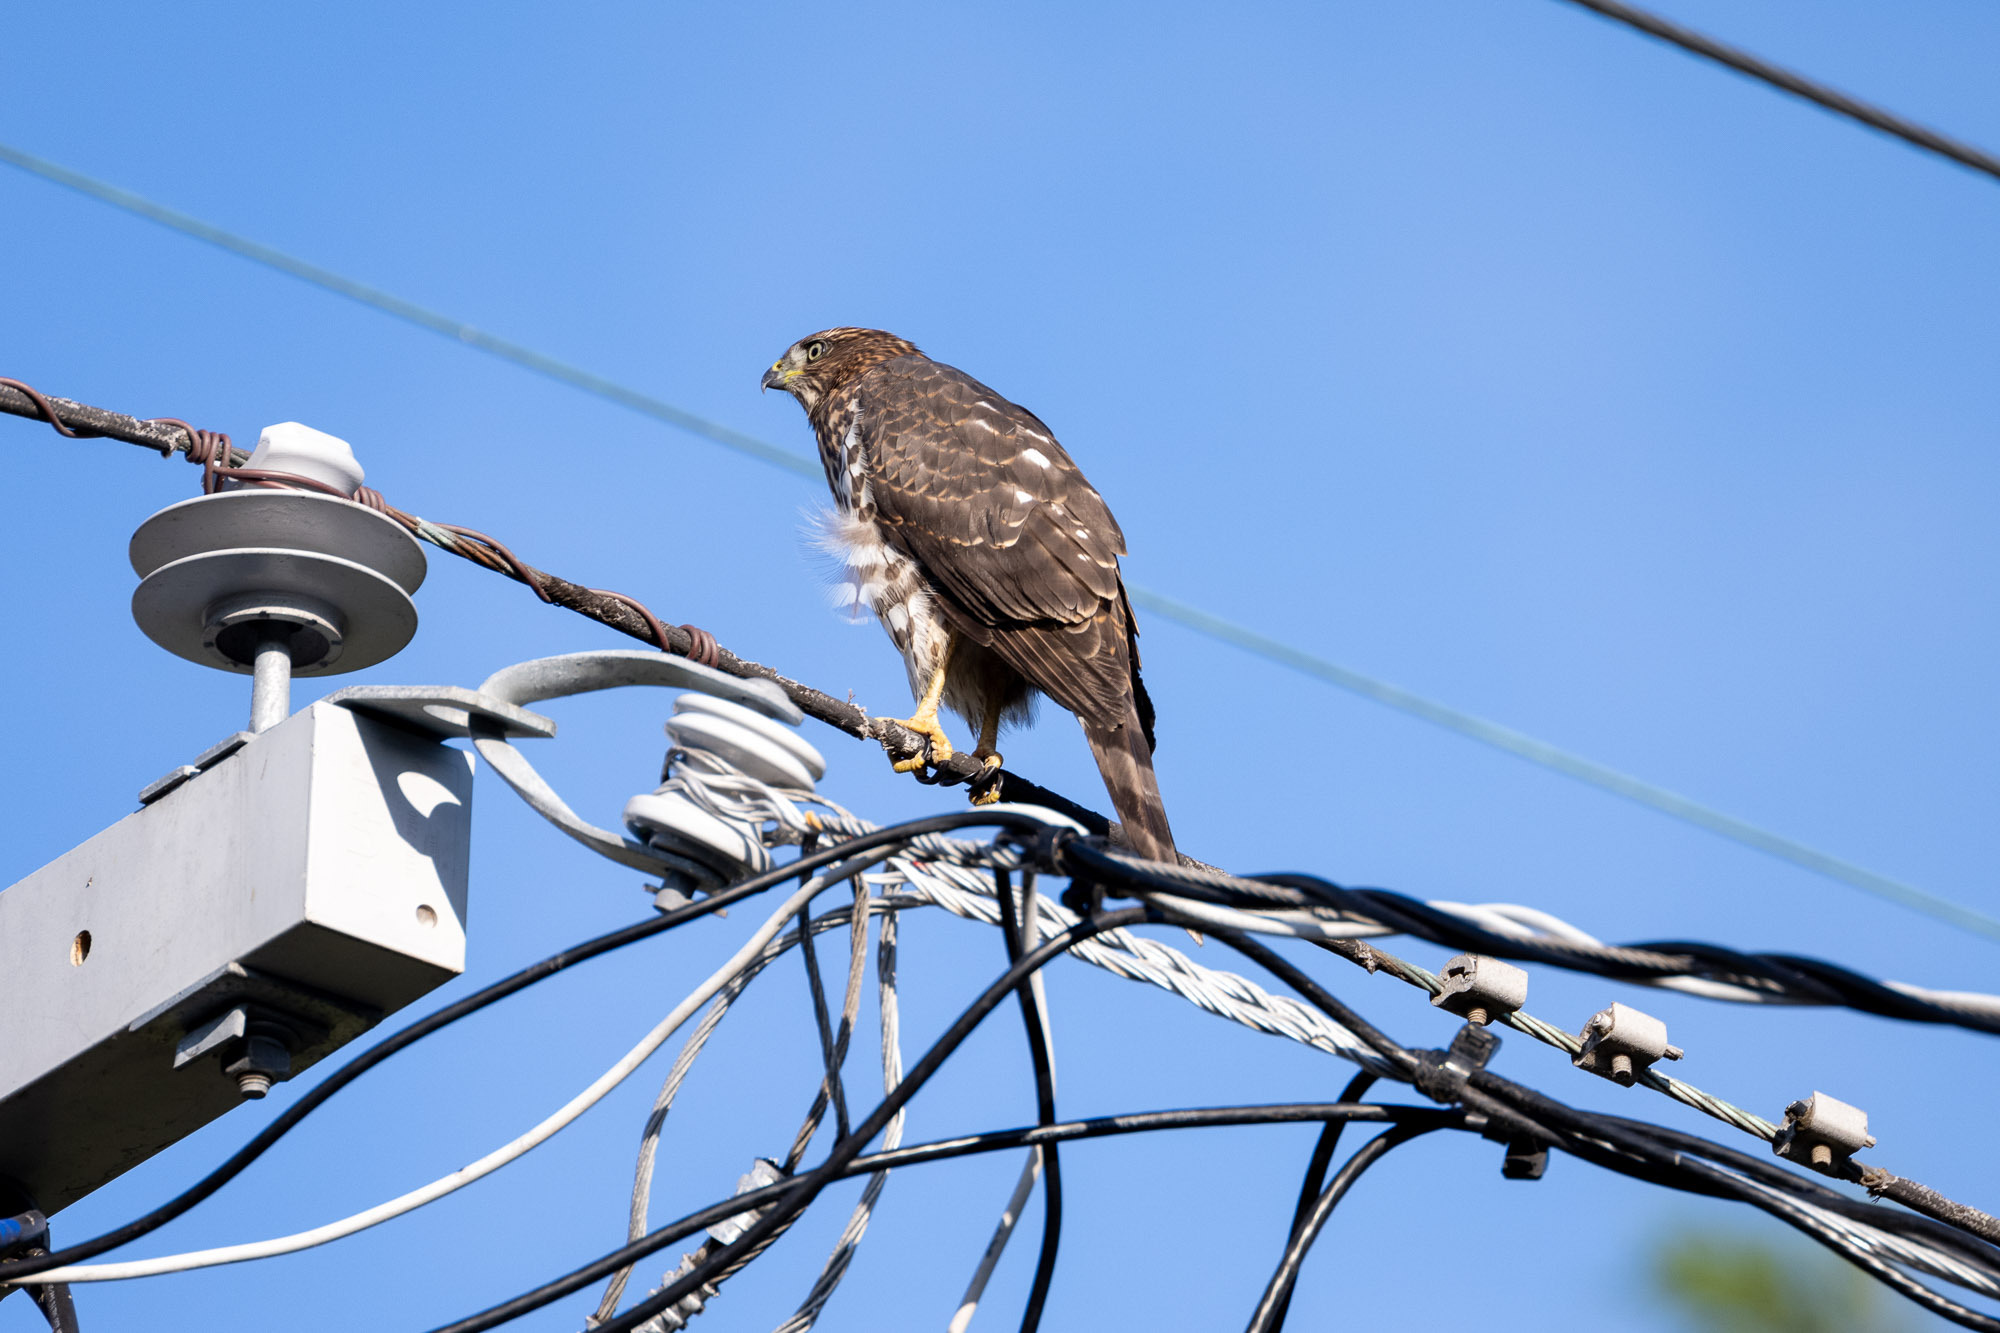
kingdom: Animalia
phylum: Chordata
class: Aves
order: Accipitriformes
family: Accipitridae
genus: Accipiter
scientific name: Accipiter cooperii
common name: Cooper's hawk
